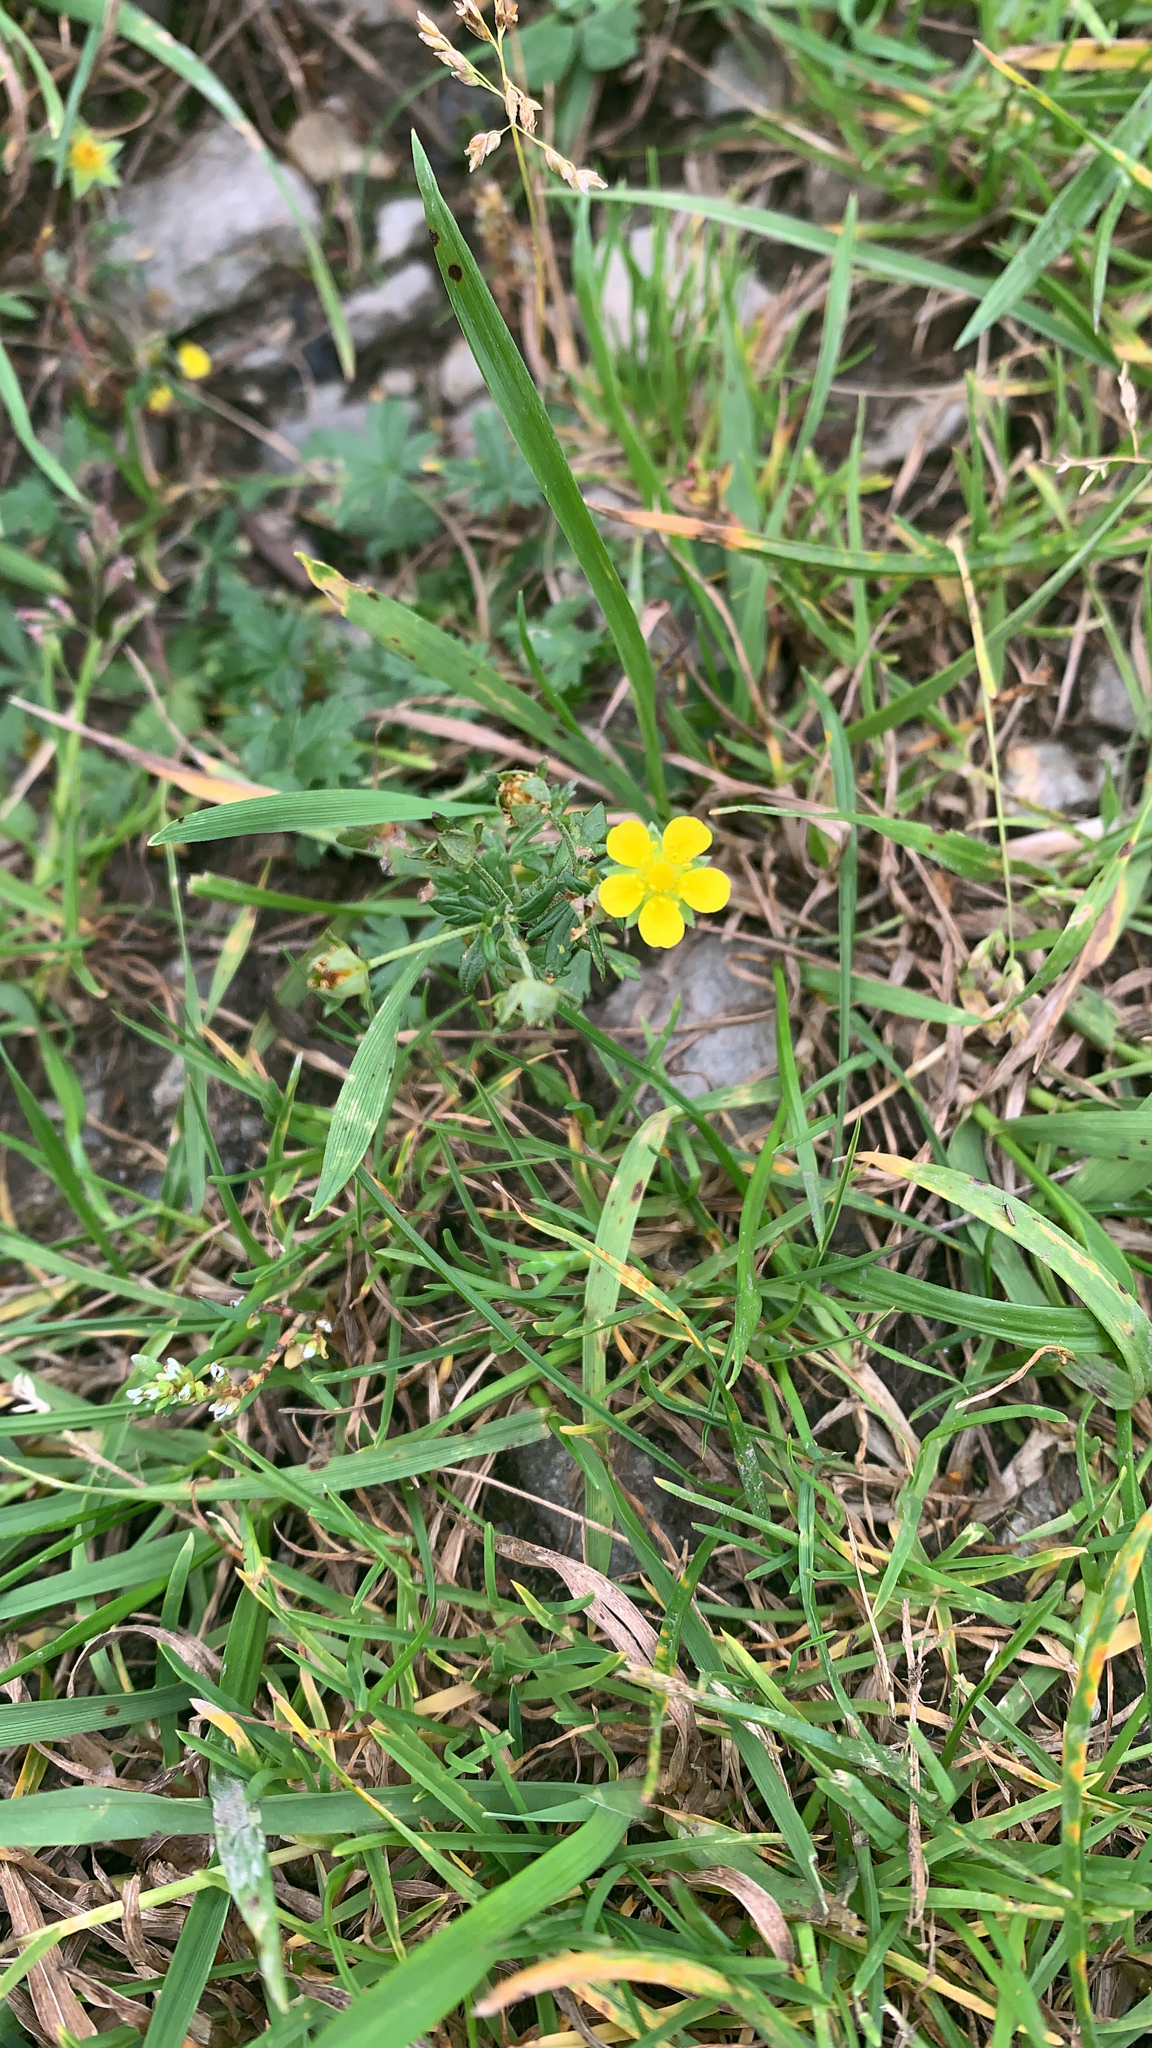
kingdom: Plantae
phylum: Tracheophyta
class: Magnoliopsida
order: Rosales
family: Rosaceae
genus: Potentilla
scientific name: Potentilla argentea
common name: Hoary cinquefoil
